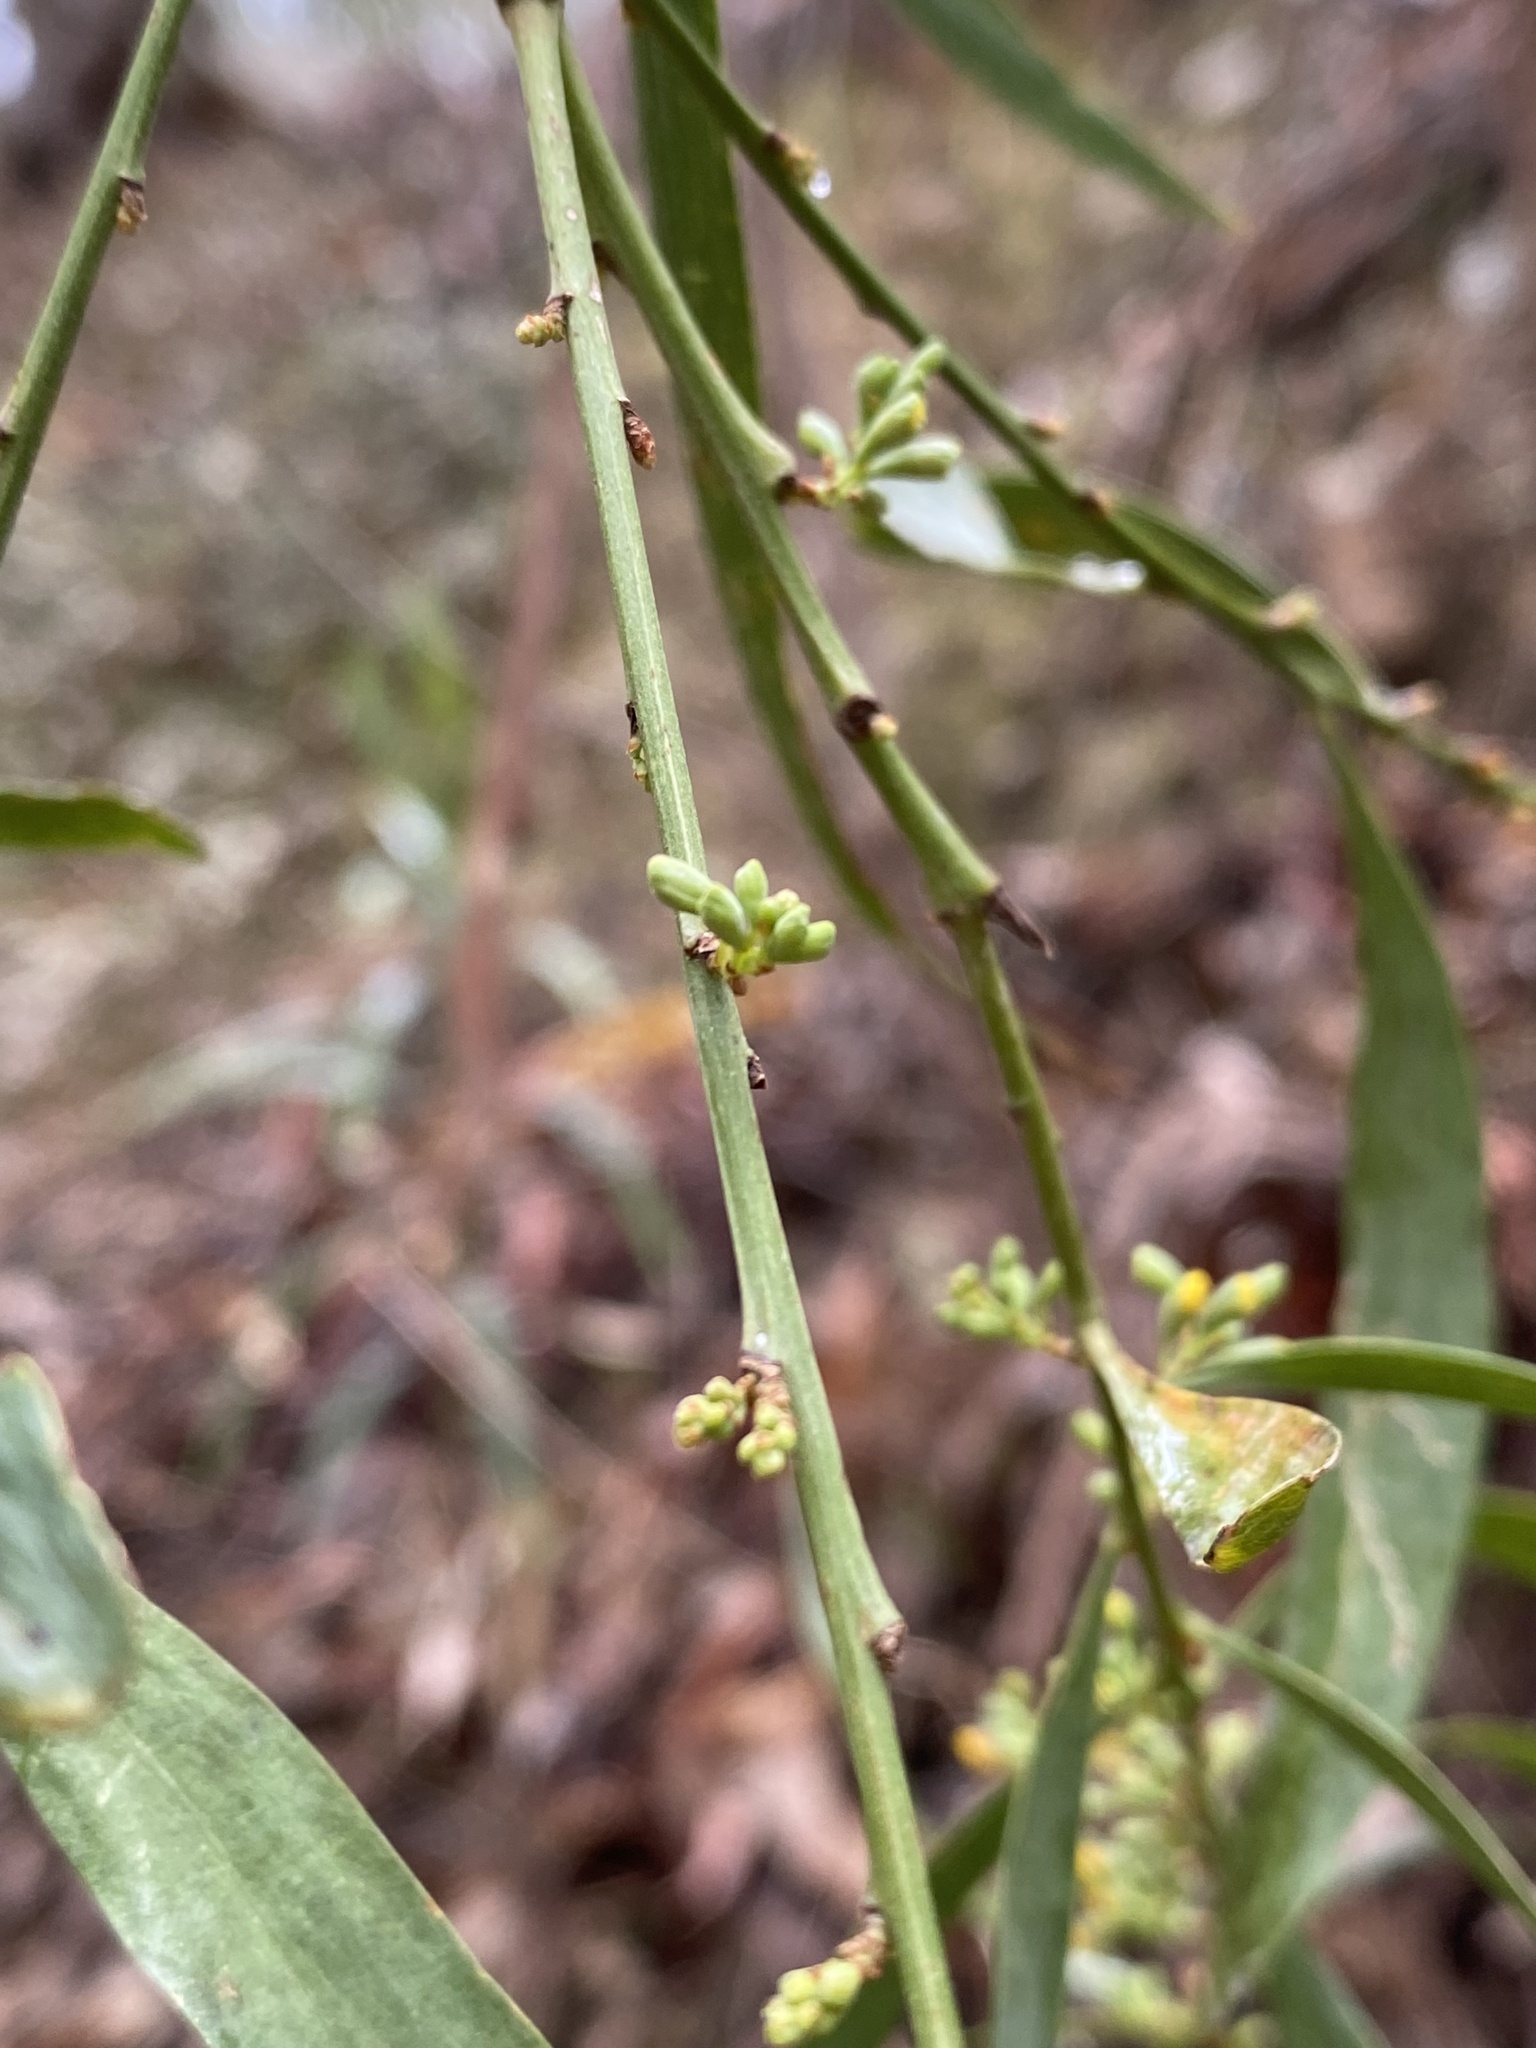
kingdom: Plantae
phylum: Tracheophyta
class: Magnoliopsida
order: Fabales
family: Fabaceae
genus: Daviesia
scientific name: Daviesia arborea
